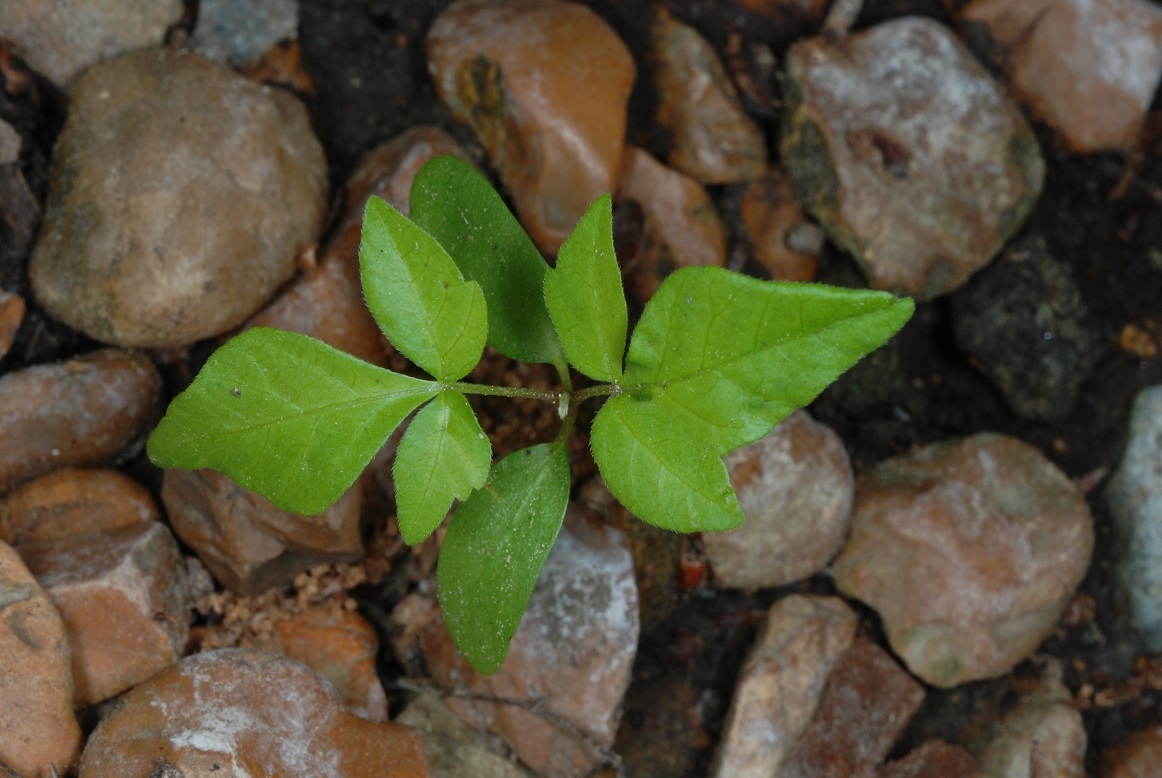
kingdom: Plantae
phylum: Tracheophyta
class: Magnoliopsida
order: Sapindales
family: Anacardiaceae
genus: Toxicodendron
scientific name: Toxicodendron radicans
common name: Poison ivy
